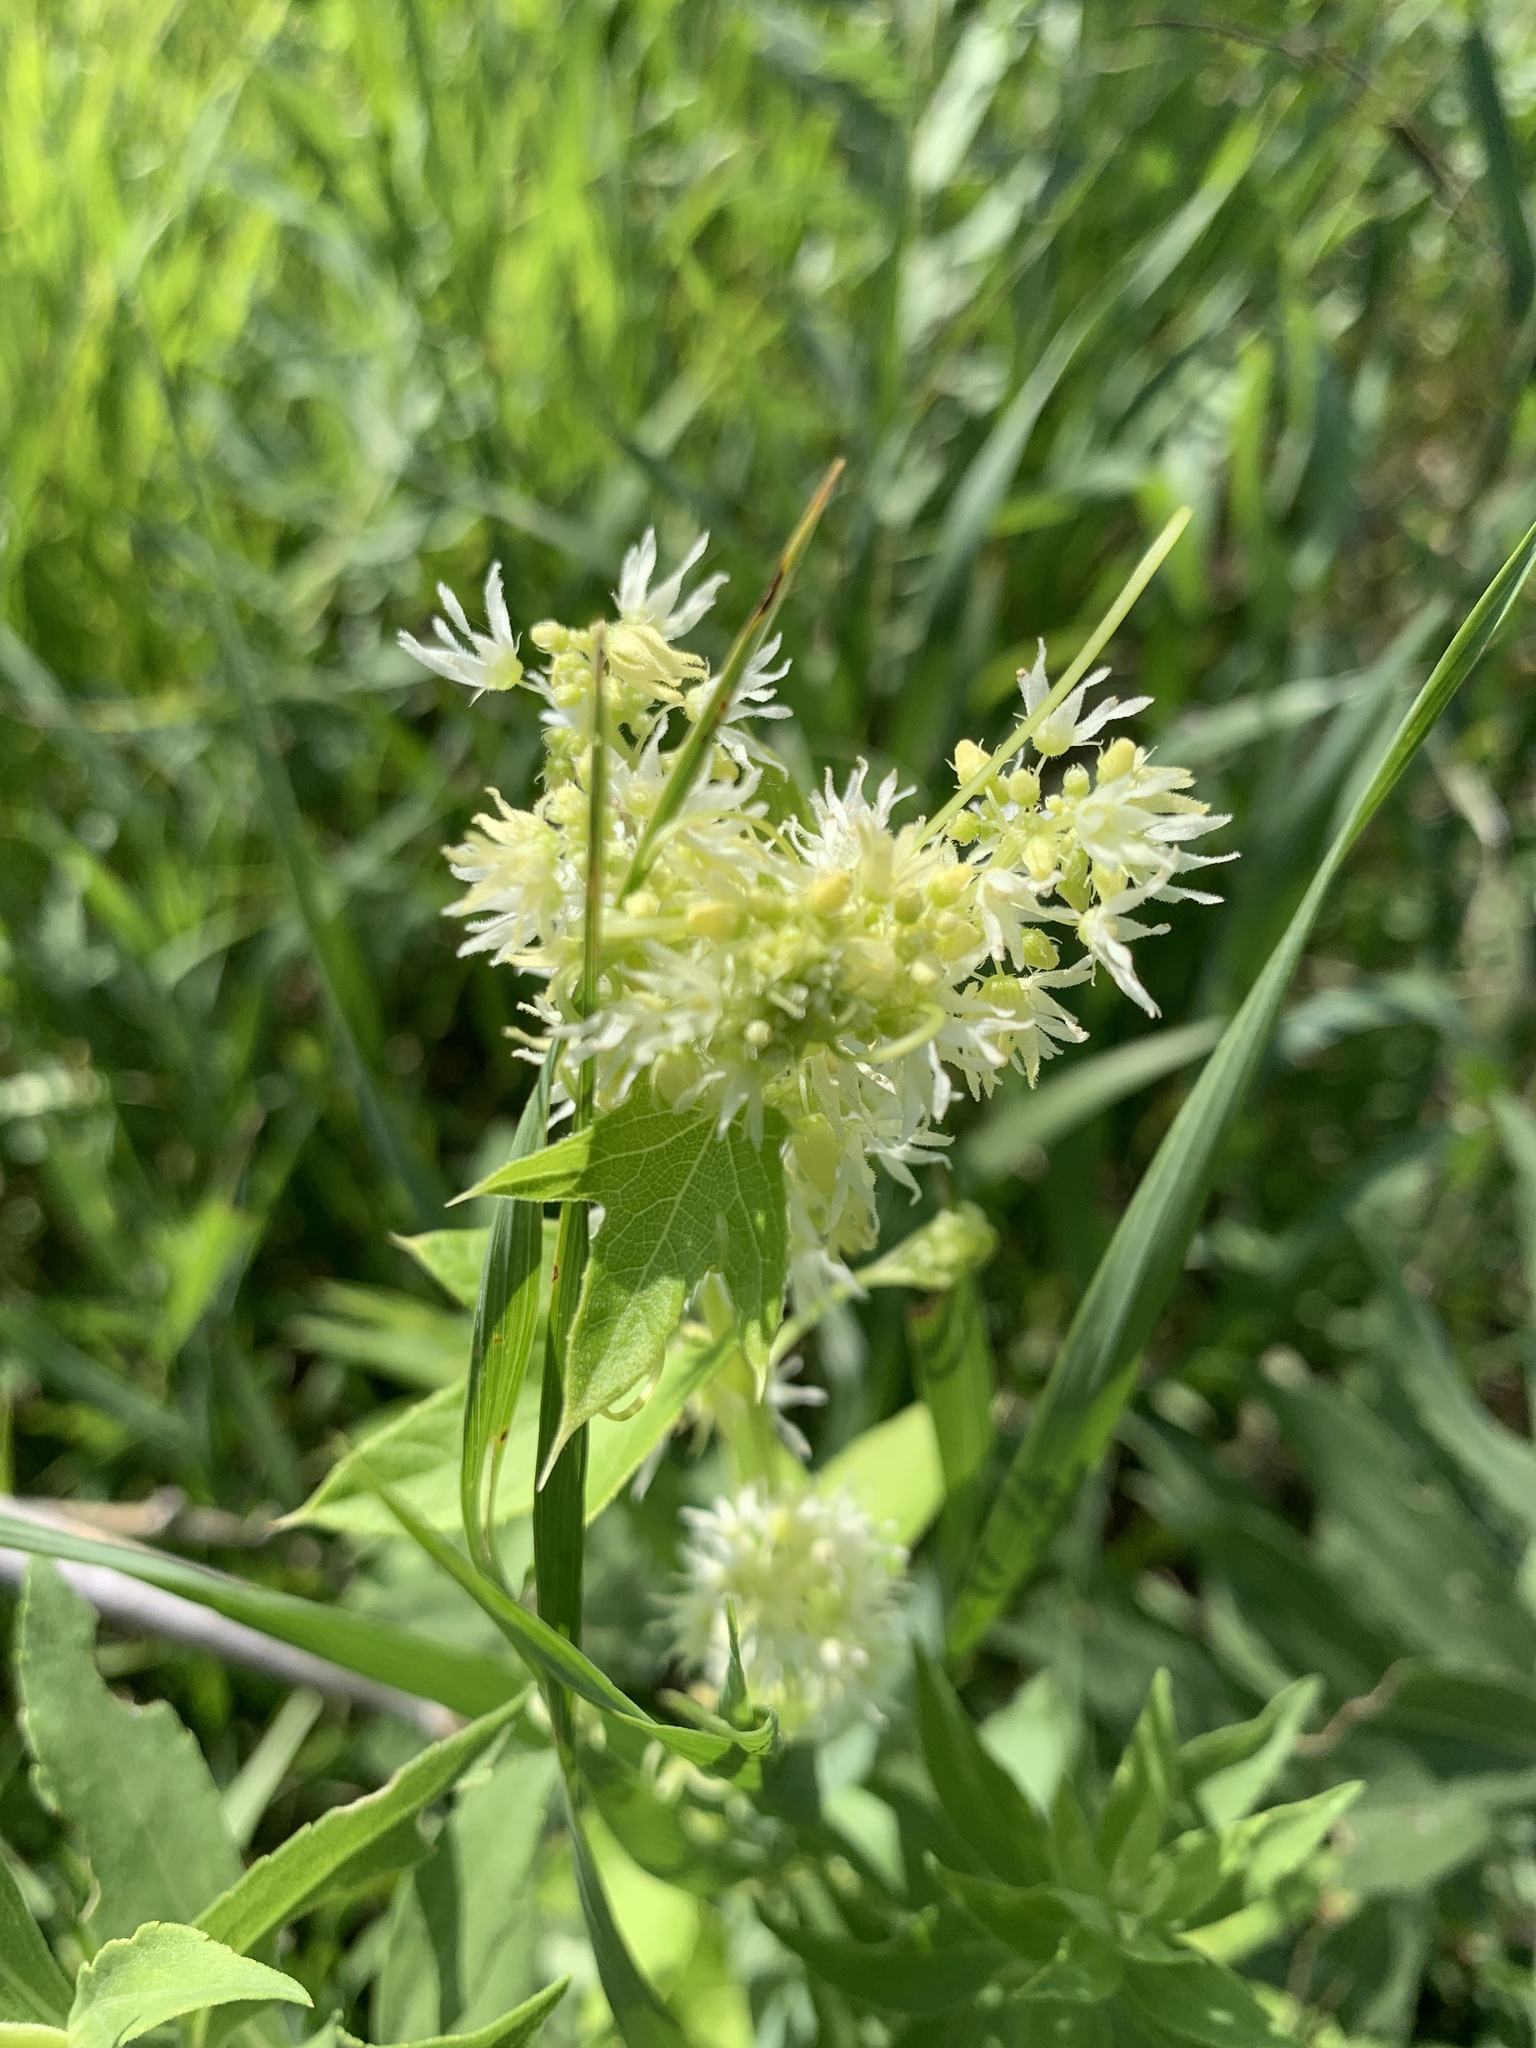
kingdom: Plantae
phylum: Tracheophyta
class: Magnoliopsida
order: Cucurbitales
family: Cucurbitaceae
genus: Echinocystis
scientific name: Echinocystis lobata
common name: Wild cucumber
